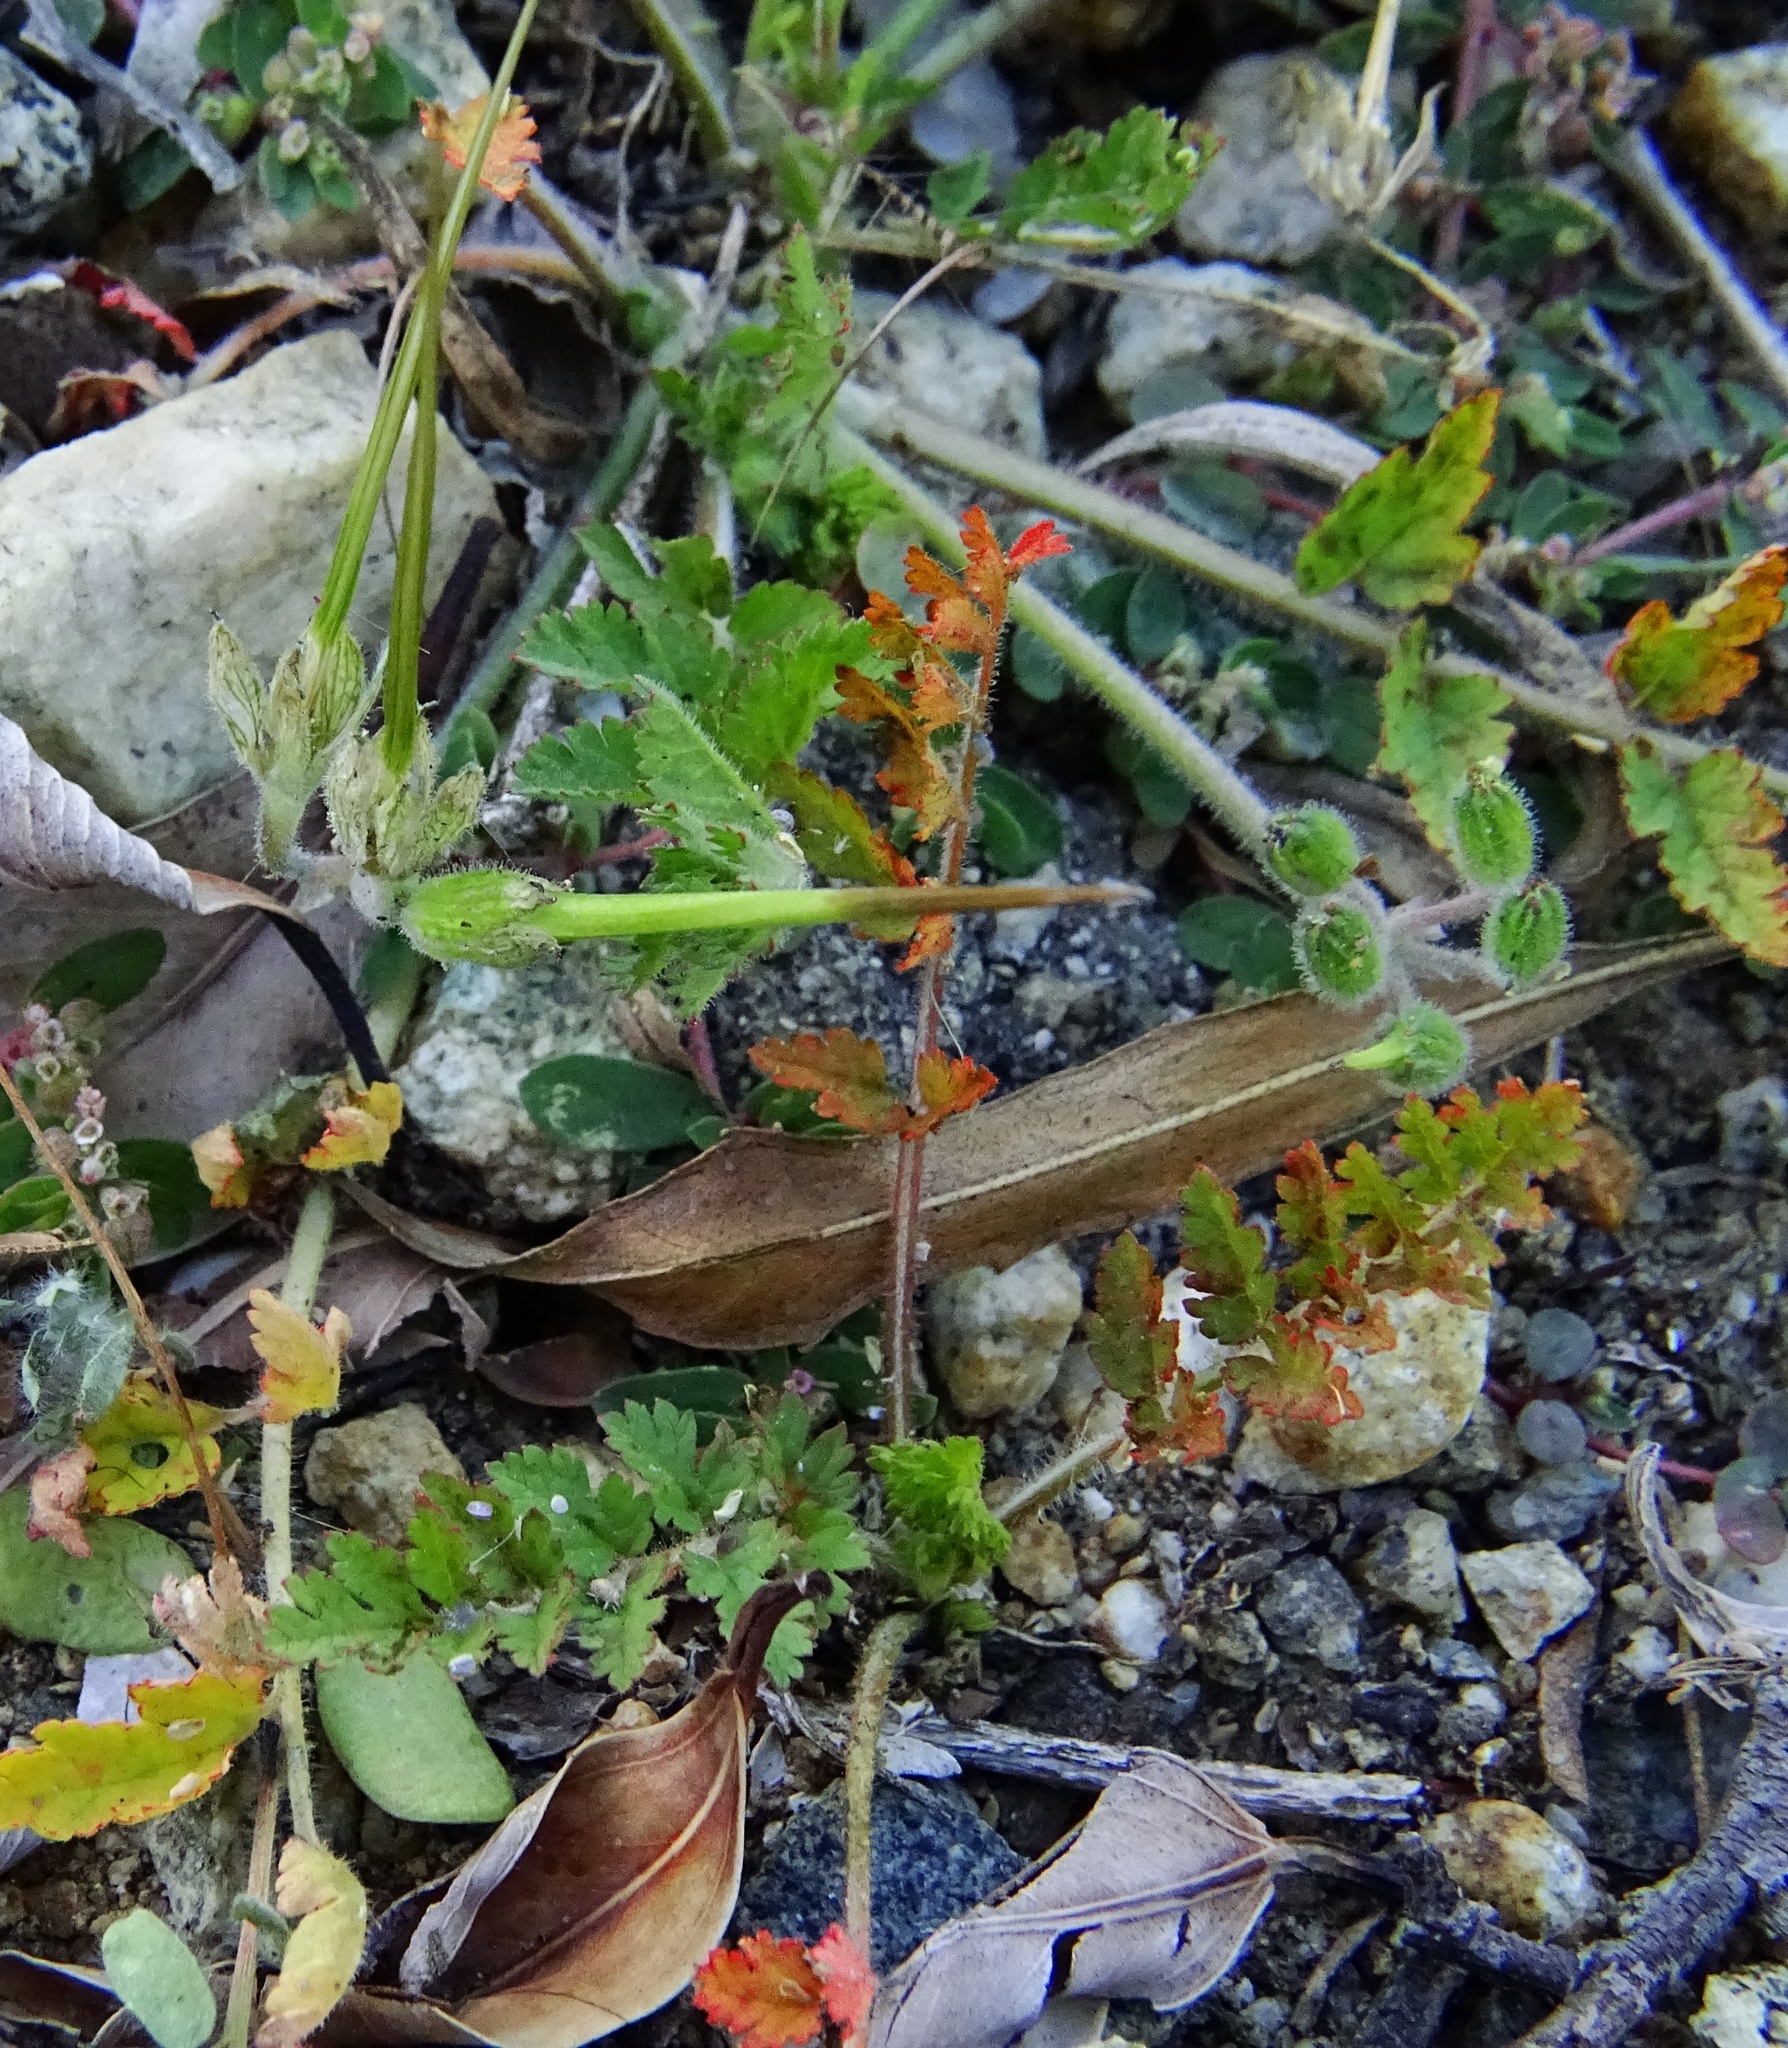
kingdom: Plantae
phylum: Tracheophyta
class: Magnoliopsida
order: Geraniales
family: Geraniaceae
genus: Erodium
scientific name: Erodium cicutarium
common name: Common stork's-bill
